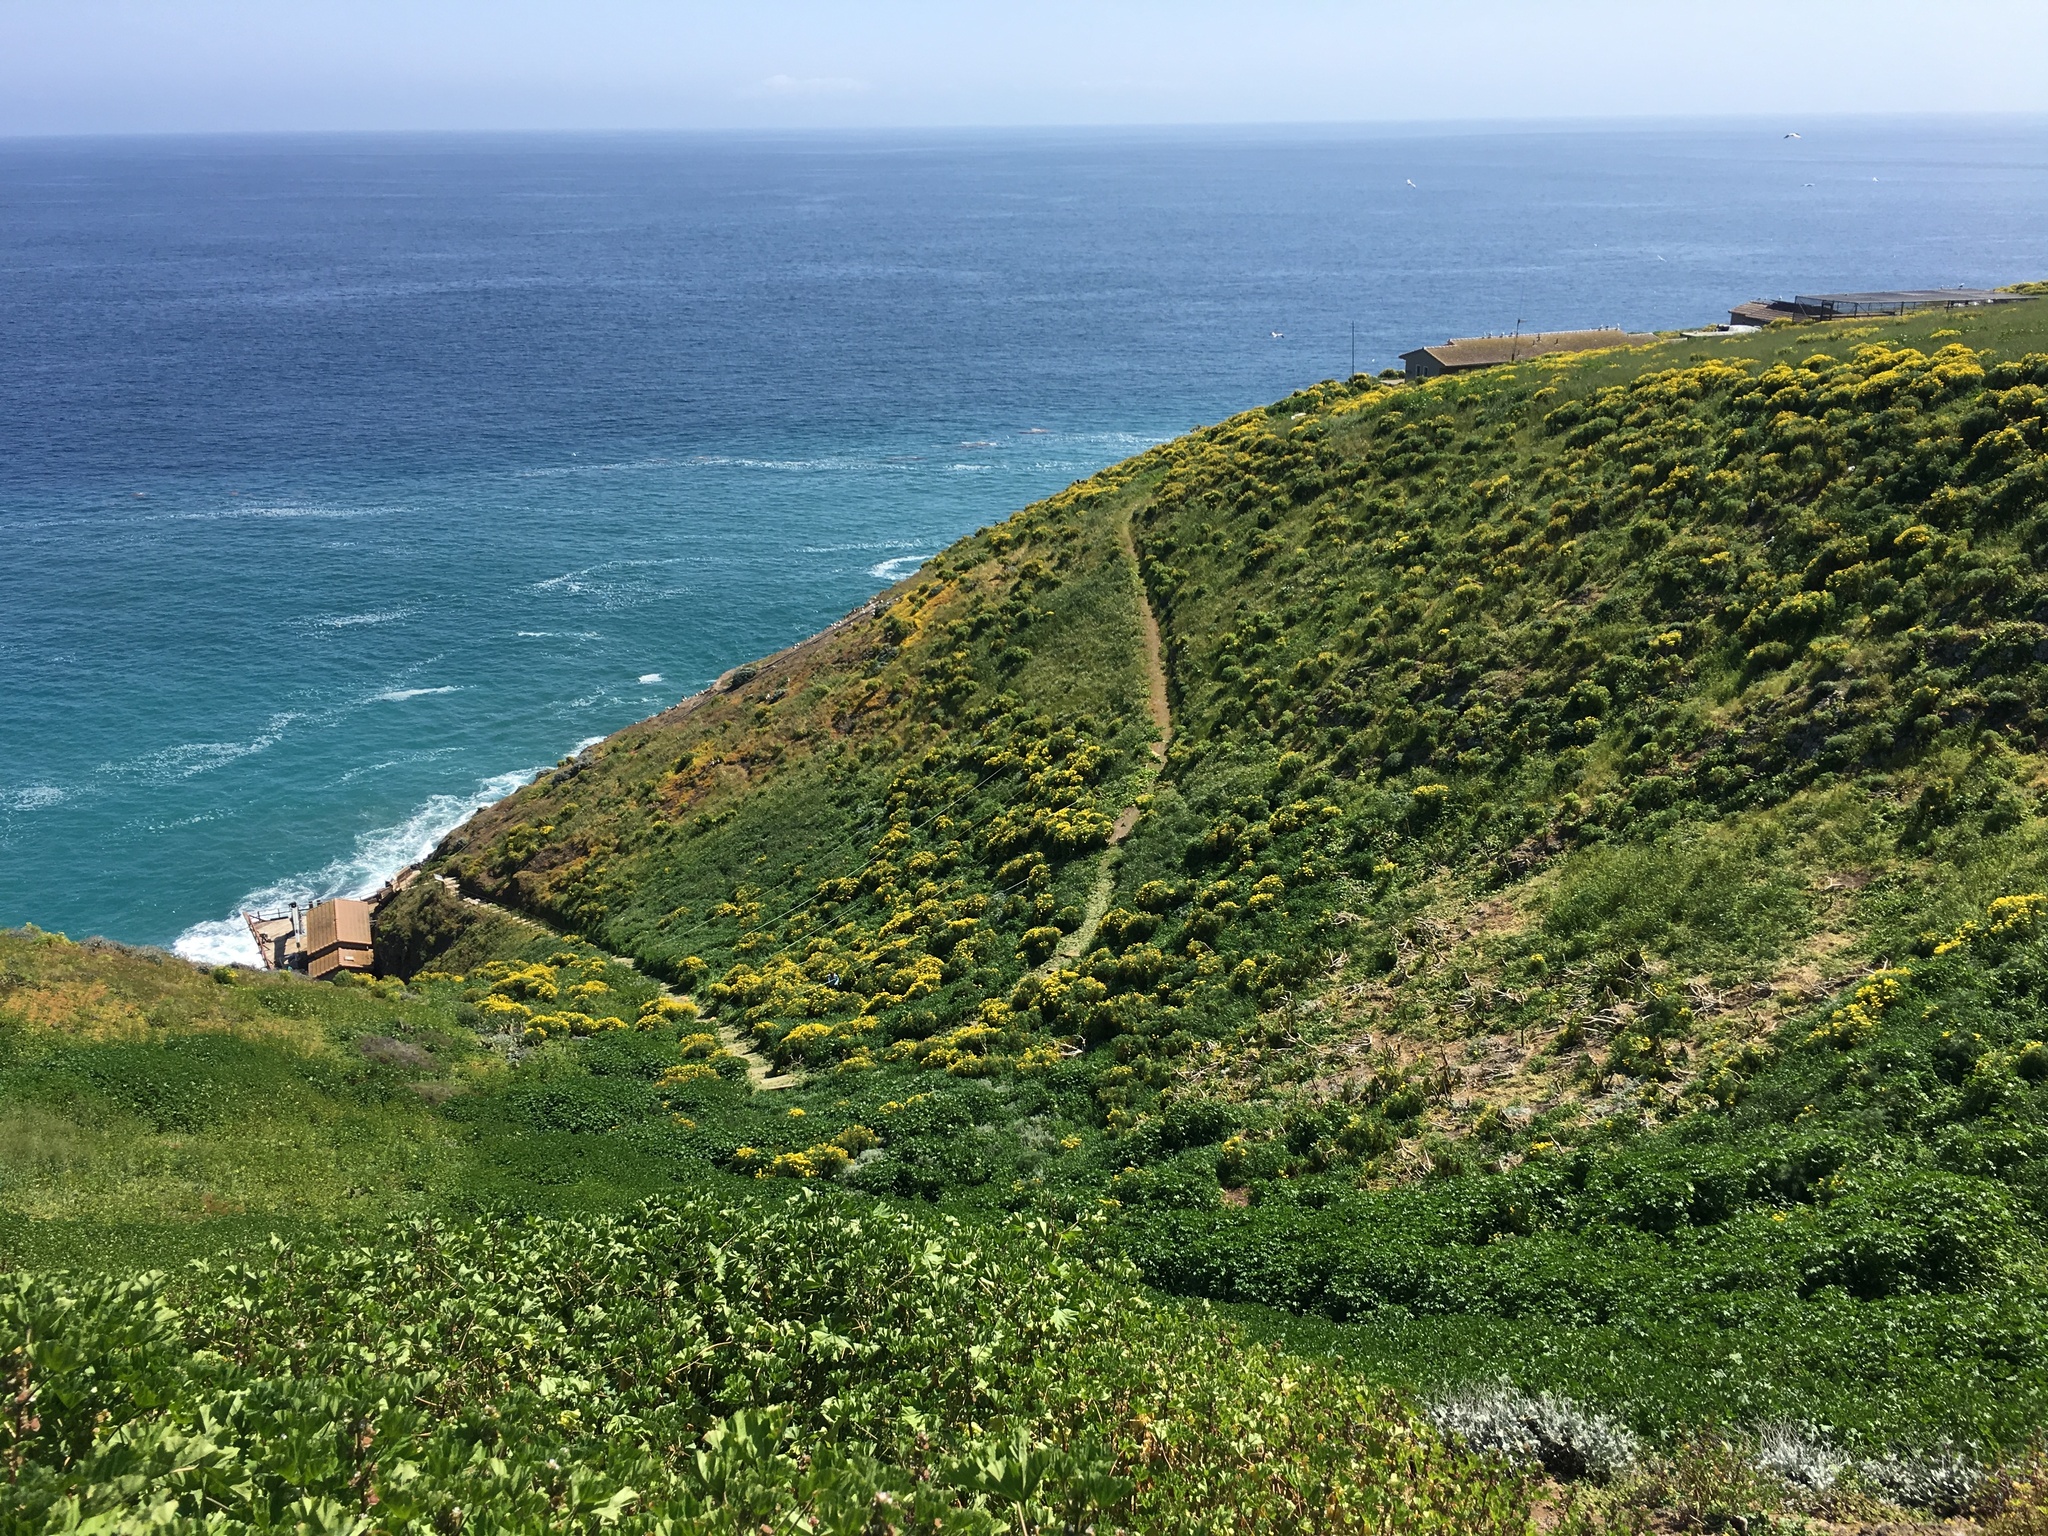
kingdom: Plantae
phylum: Tracheophyta
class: Magnoliopsida
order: Asterales
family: Asteraceae
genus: Coreopsis
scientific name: Coreopsis gigantea
